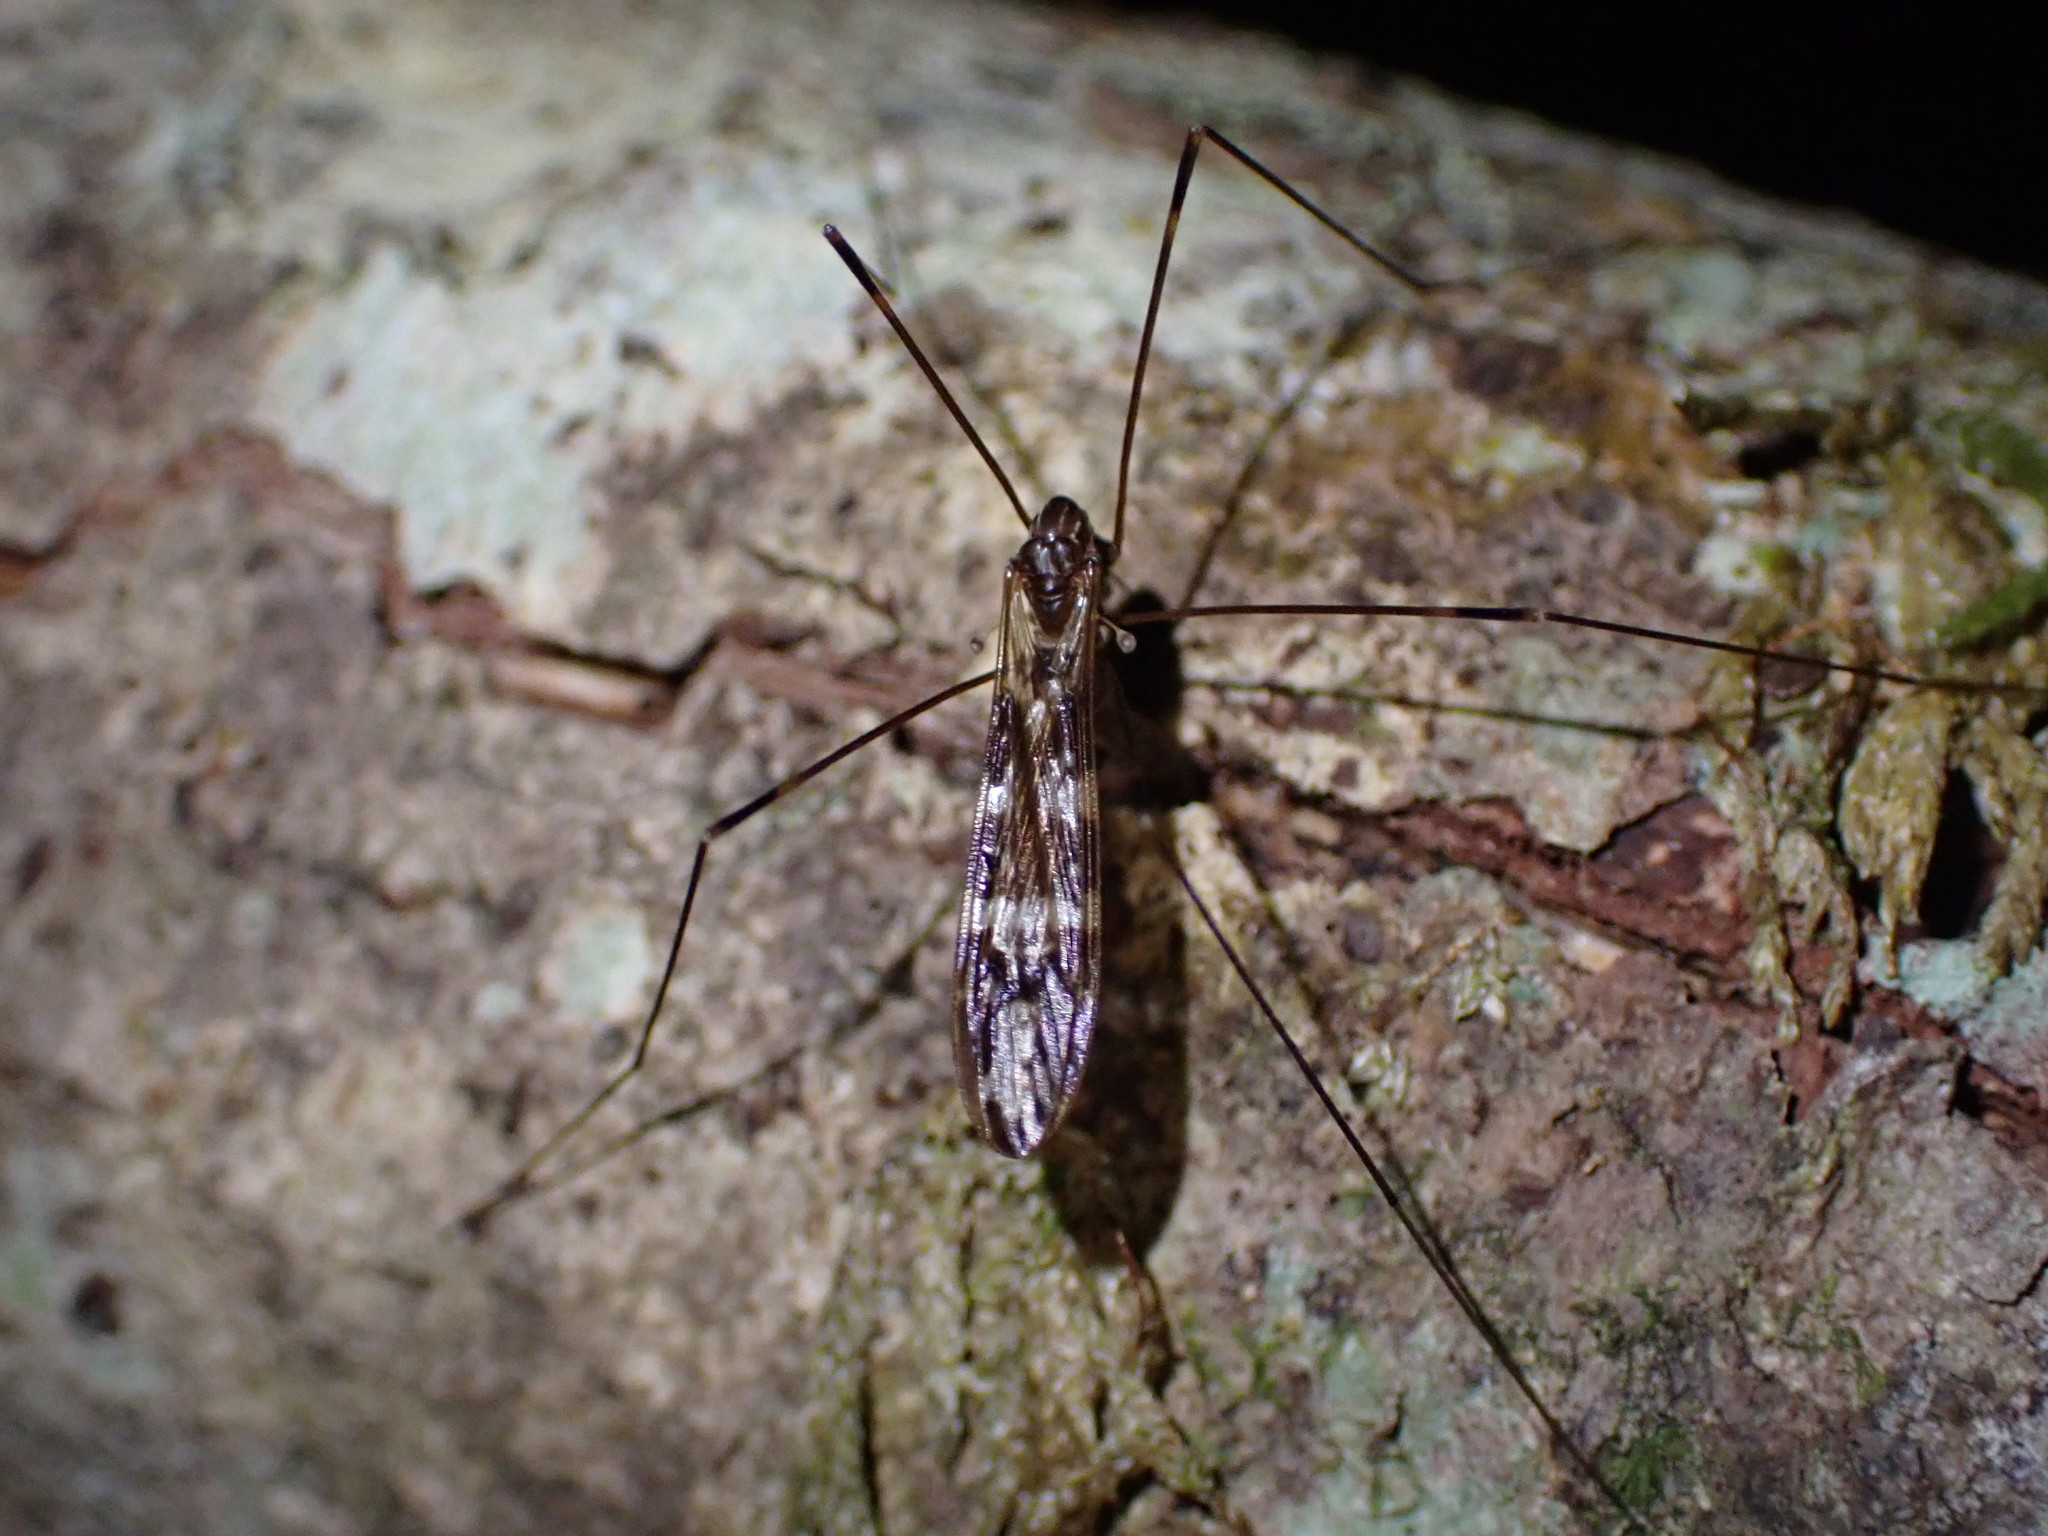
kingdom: Animalia
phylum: Arthropoda
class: Insecta
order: Diptera
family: Limoniidae
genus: Discobola
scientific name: Discobola dohrni
